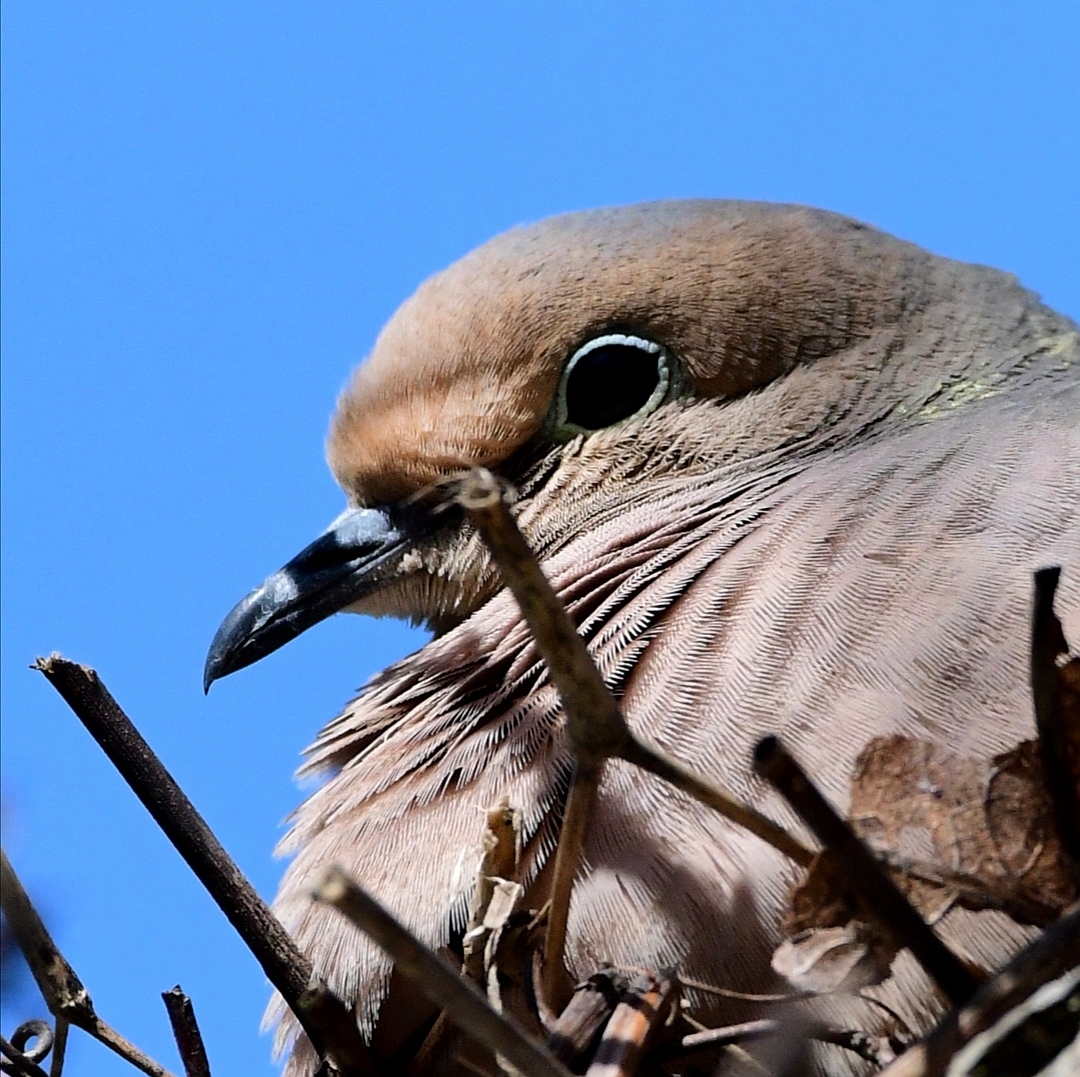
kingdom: Animalia
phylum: Chordata
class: Aves
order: Columbiformes
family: Columbidae
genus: Zenaida
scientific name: Zenaida macroura
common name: Mourning dove
